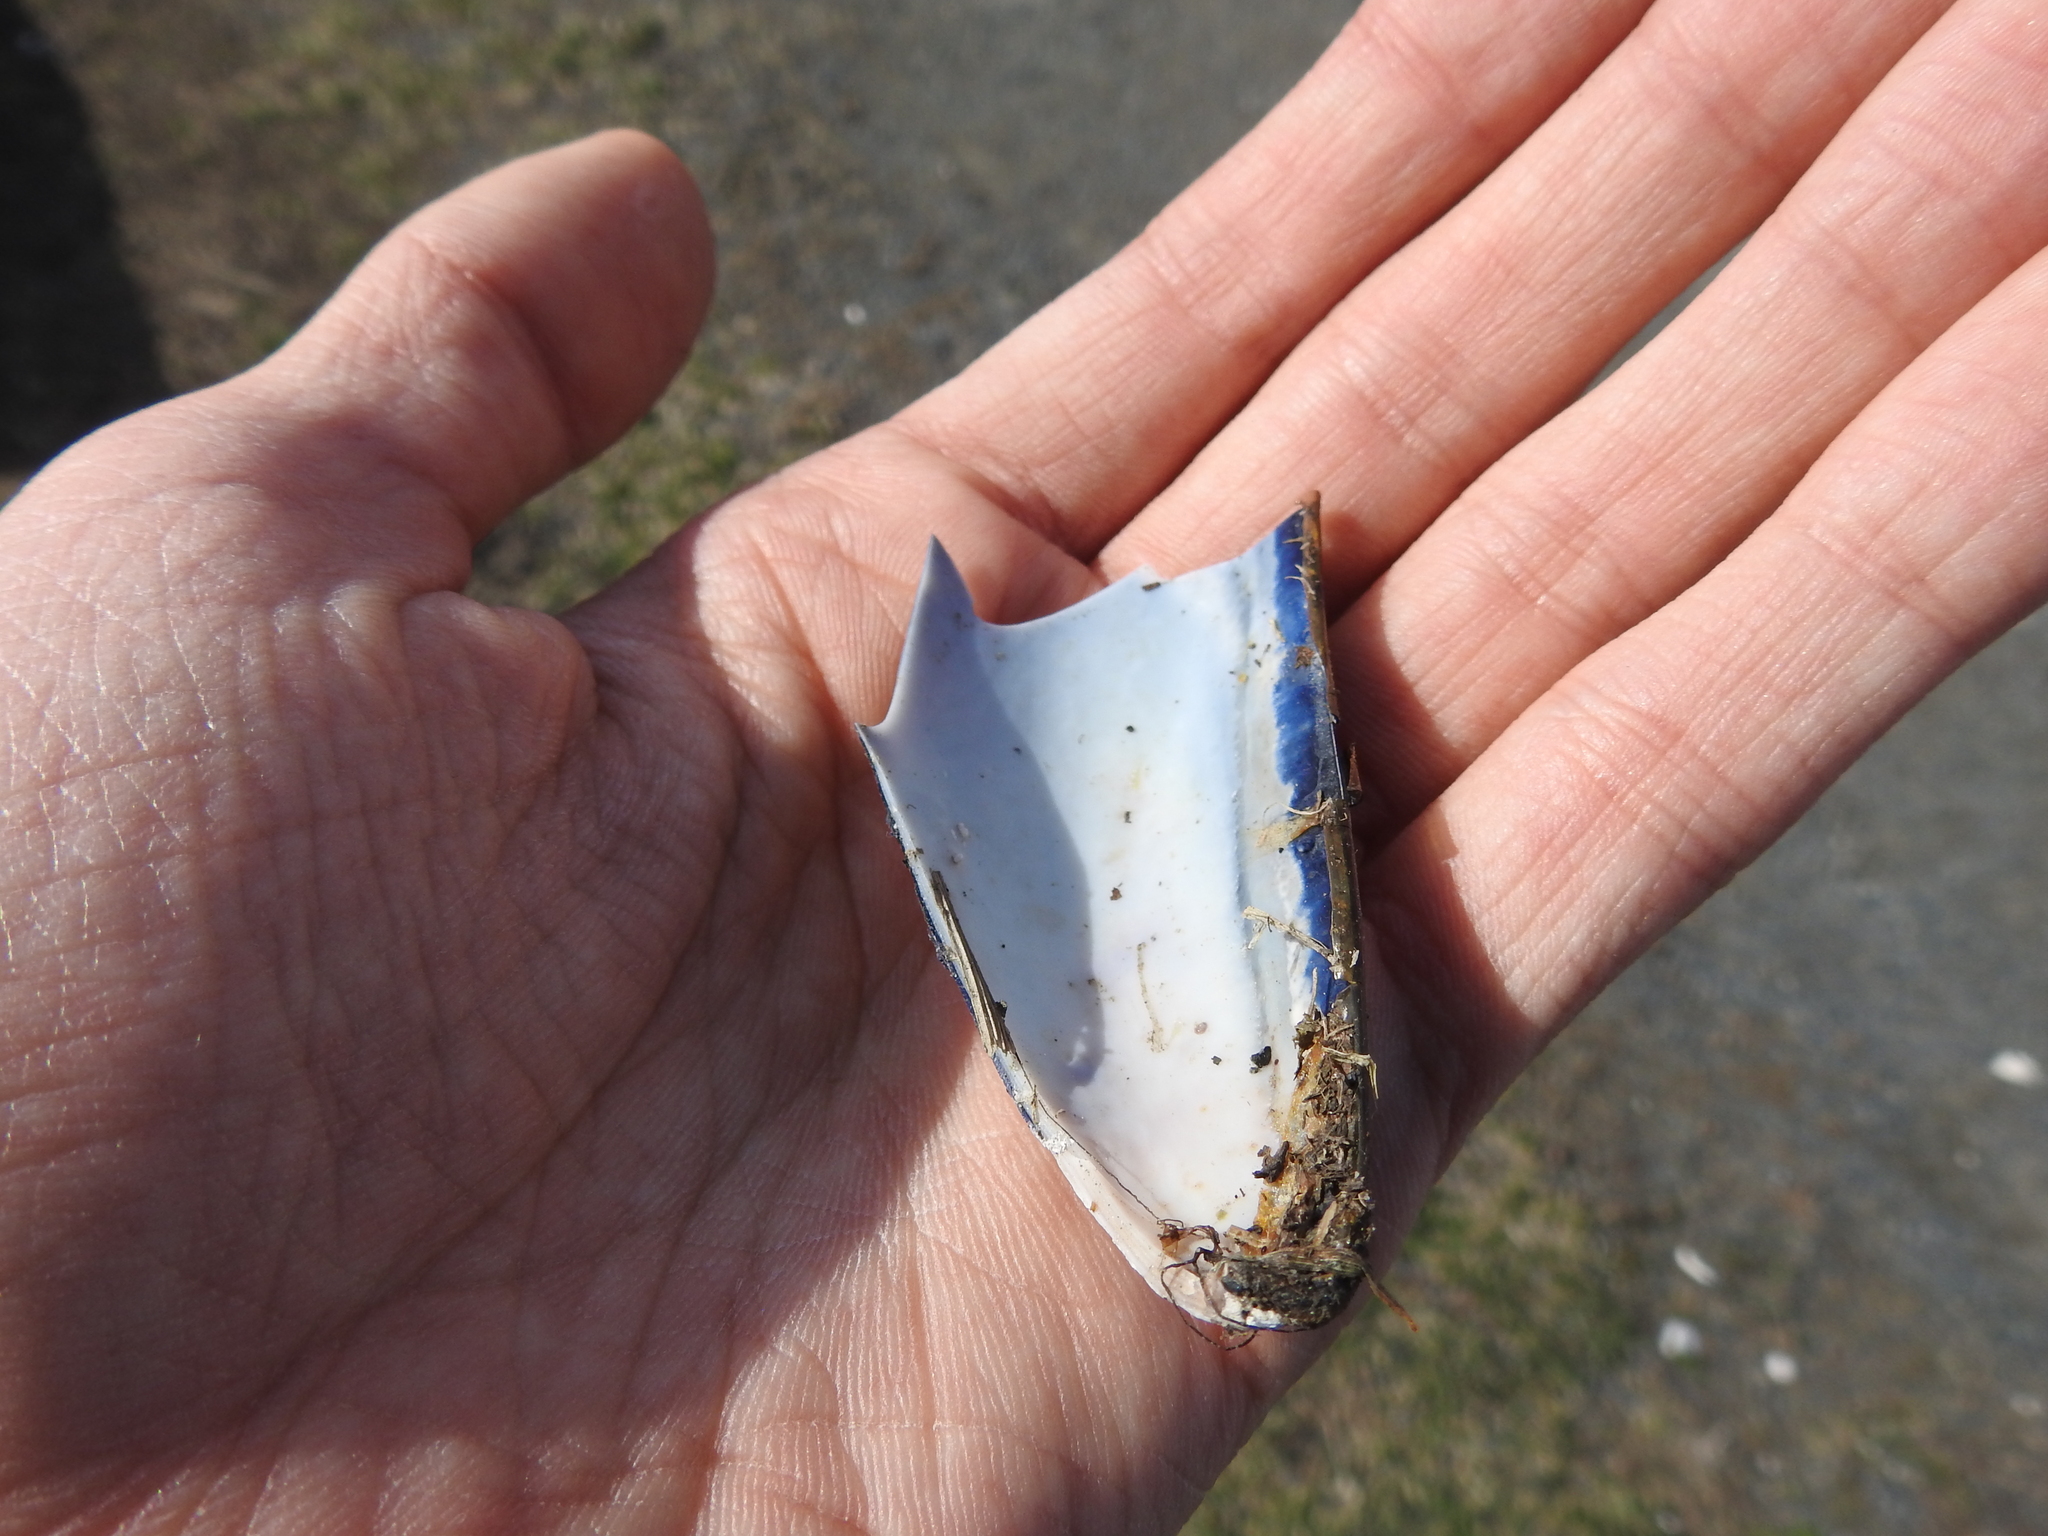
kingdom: Animalia
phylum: Mollusca
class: Bivalvia
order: Mytilida
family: Mytilidae
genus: Mytilus
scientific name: Mytilus edulis
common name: Blue mussel
